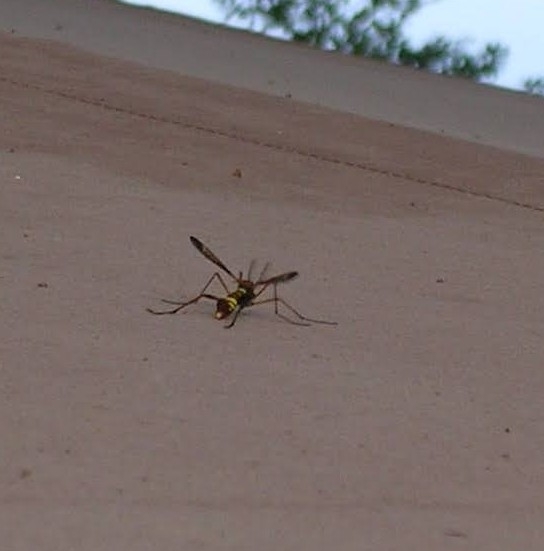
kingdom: Animalia
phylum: Arthropoda
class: Insecta
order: Diptera
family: Tipulidae
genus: Ctenophora
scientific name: Ctenophora ornata
